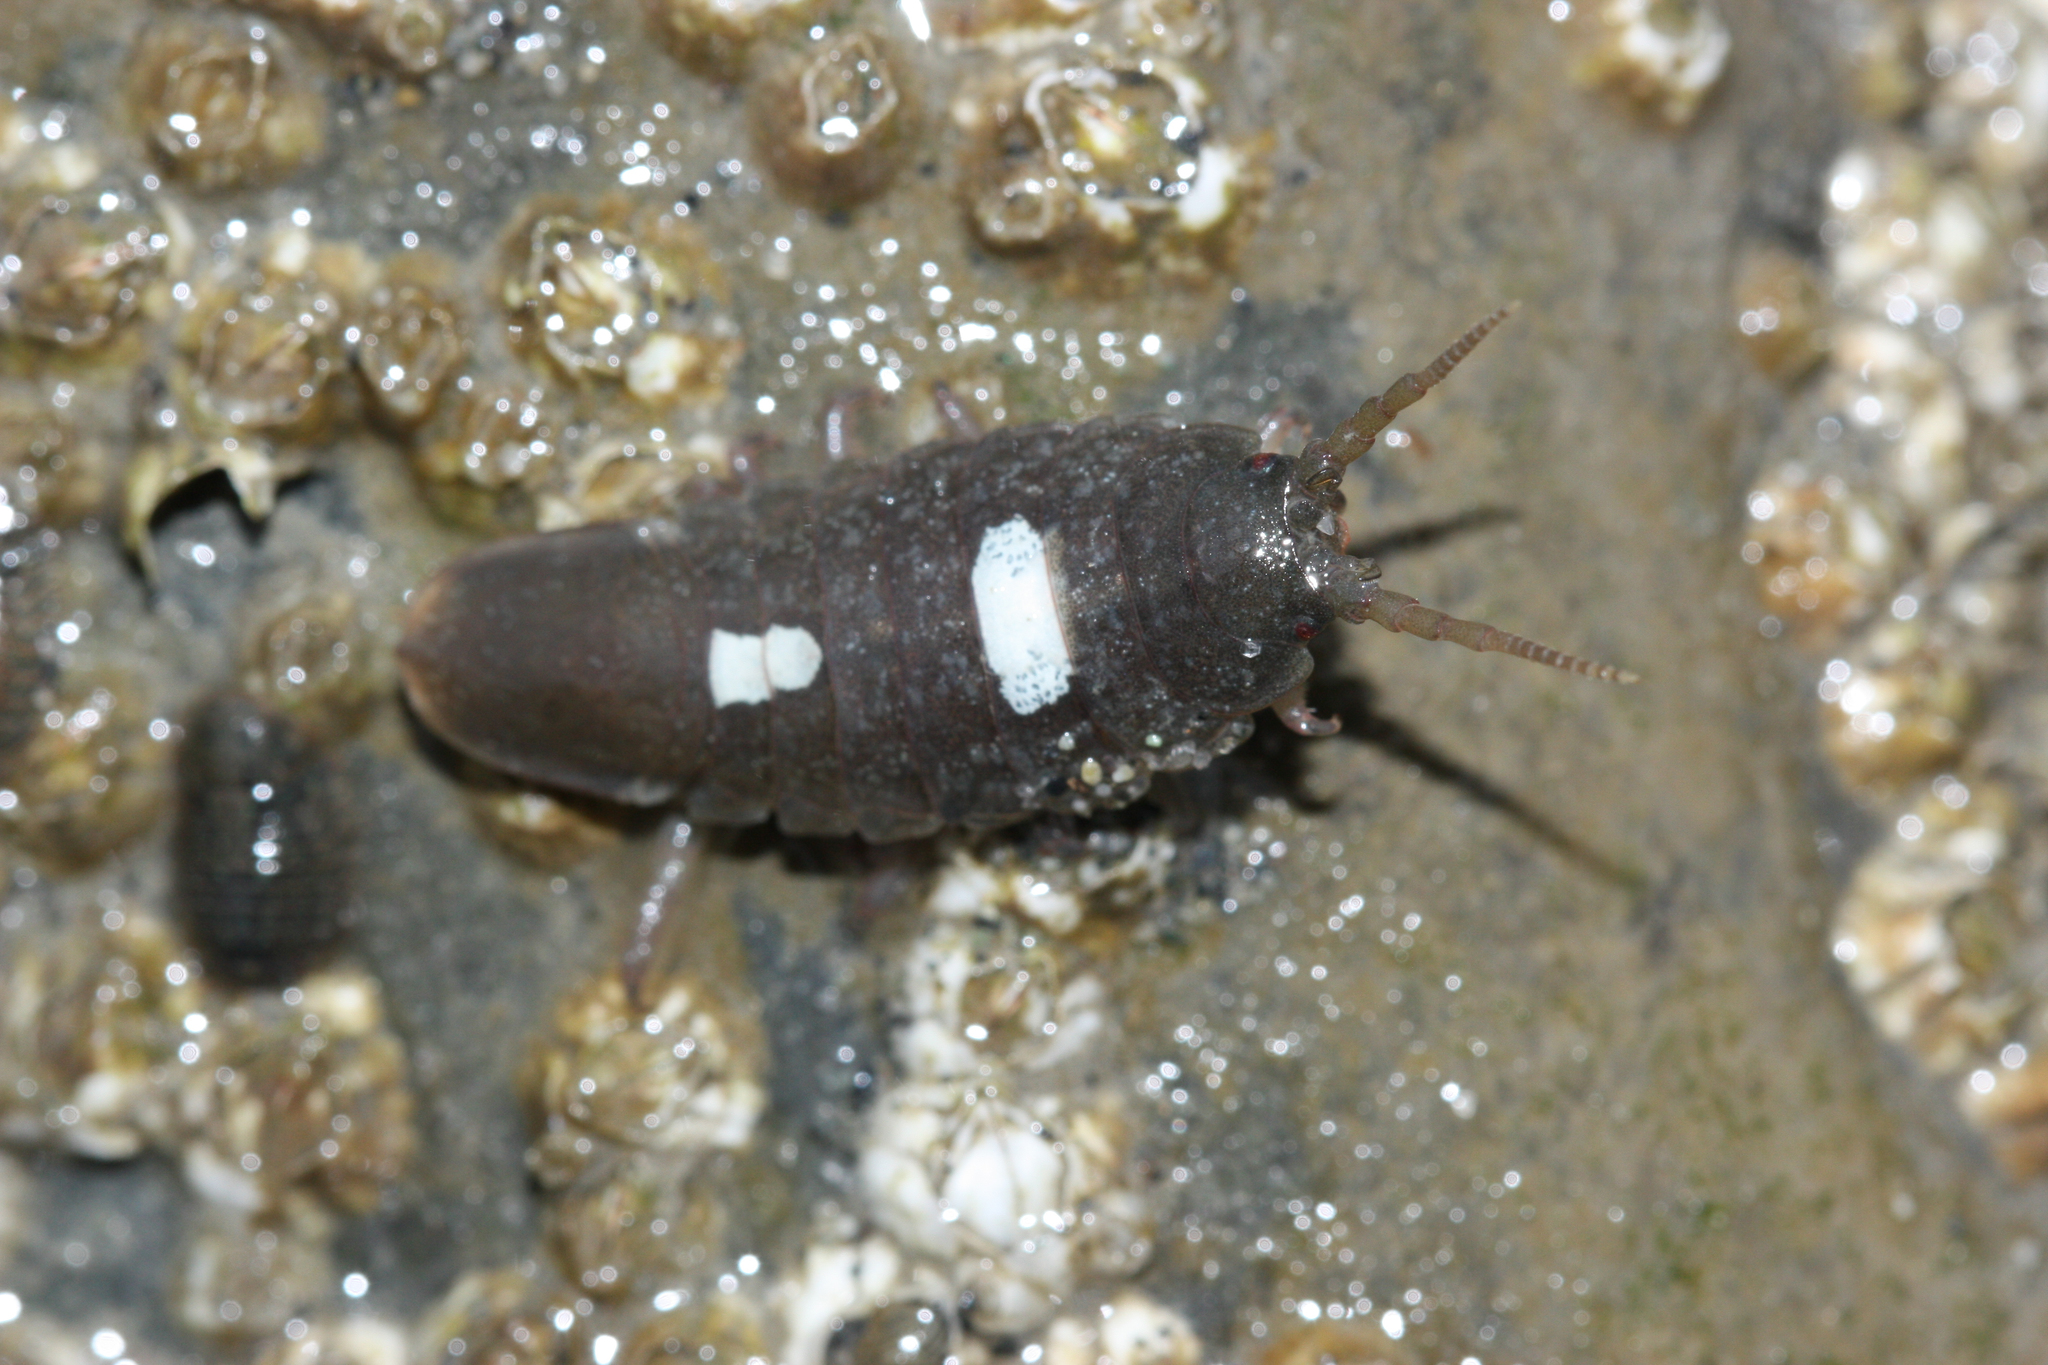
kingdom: Animalia
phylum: Arthropoda
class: Malacostraca
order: Isopoda
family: Idoteidae
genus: Pentidotea
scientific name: Pentidotea wosnesenskii
